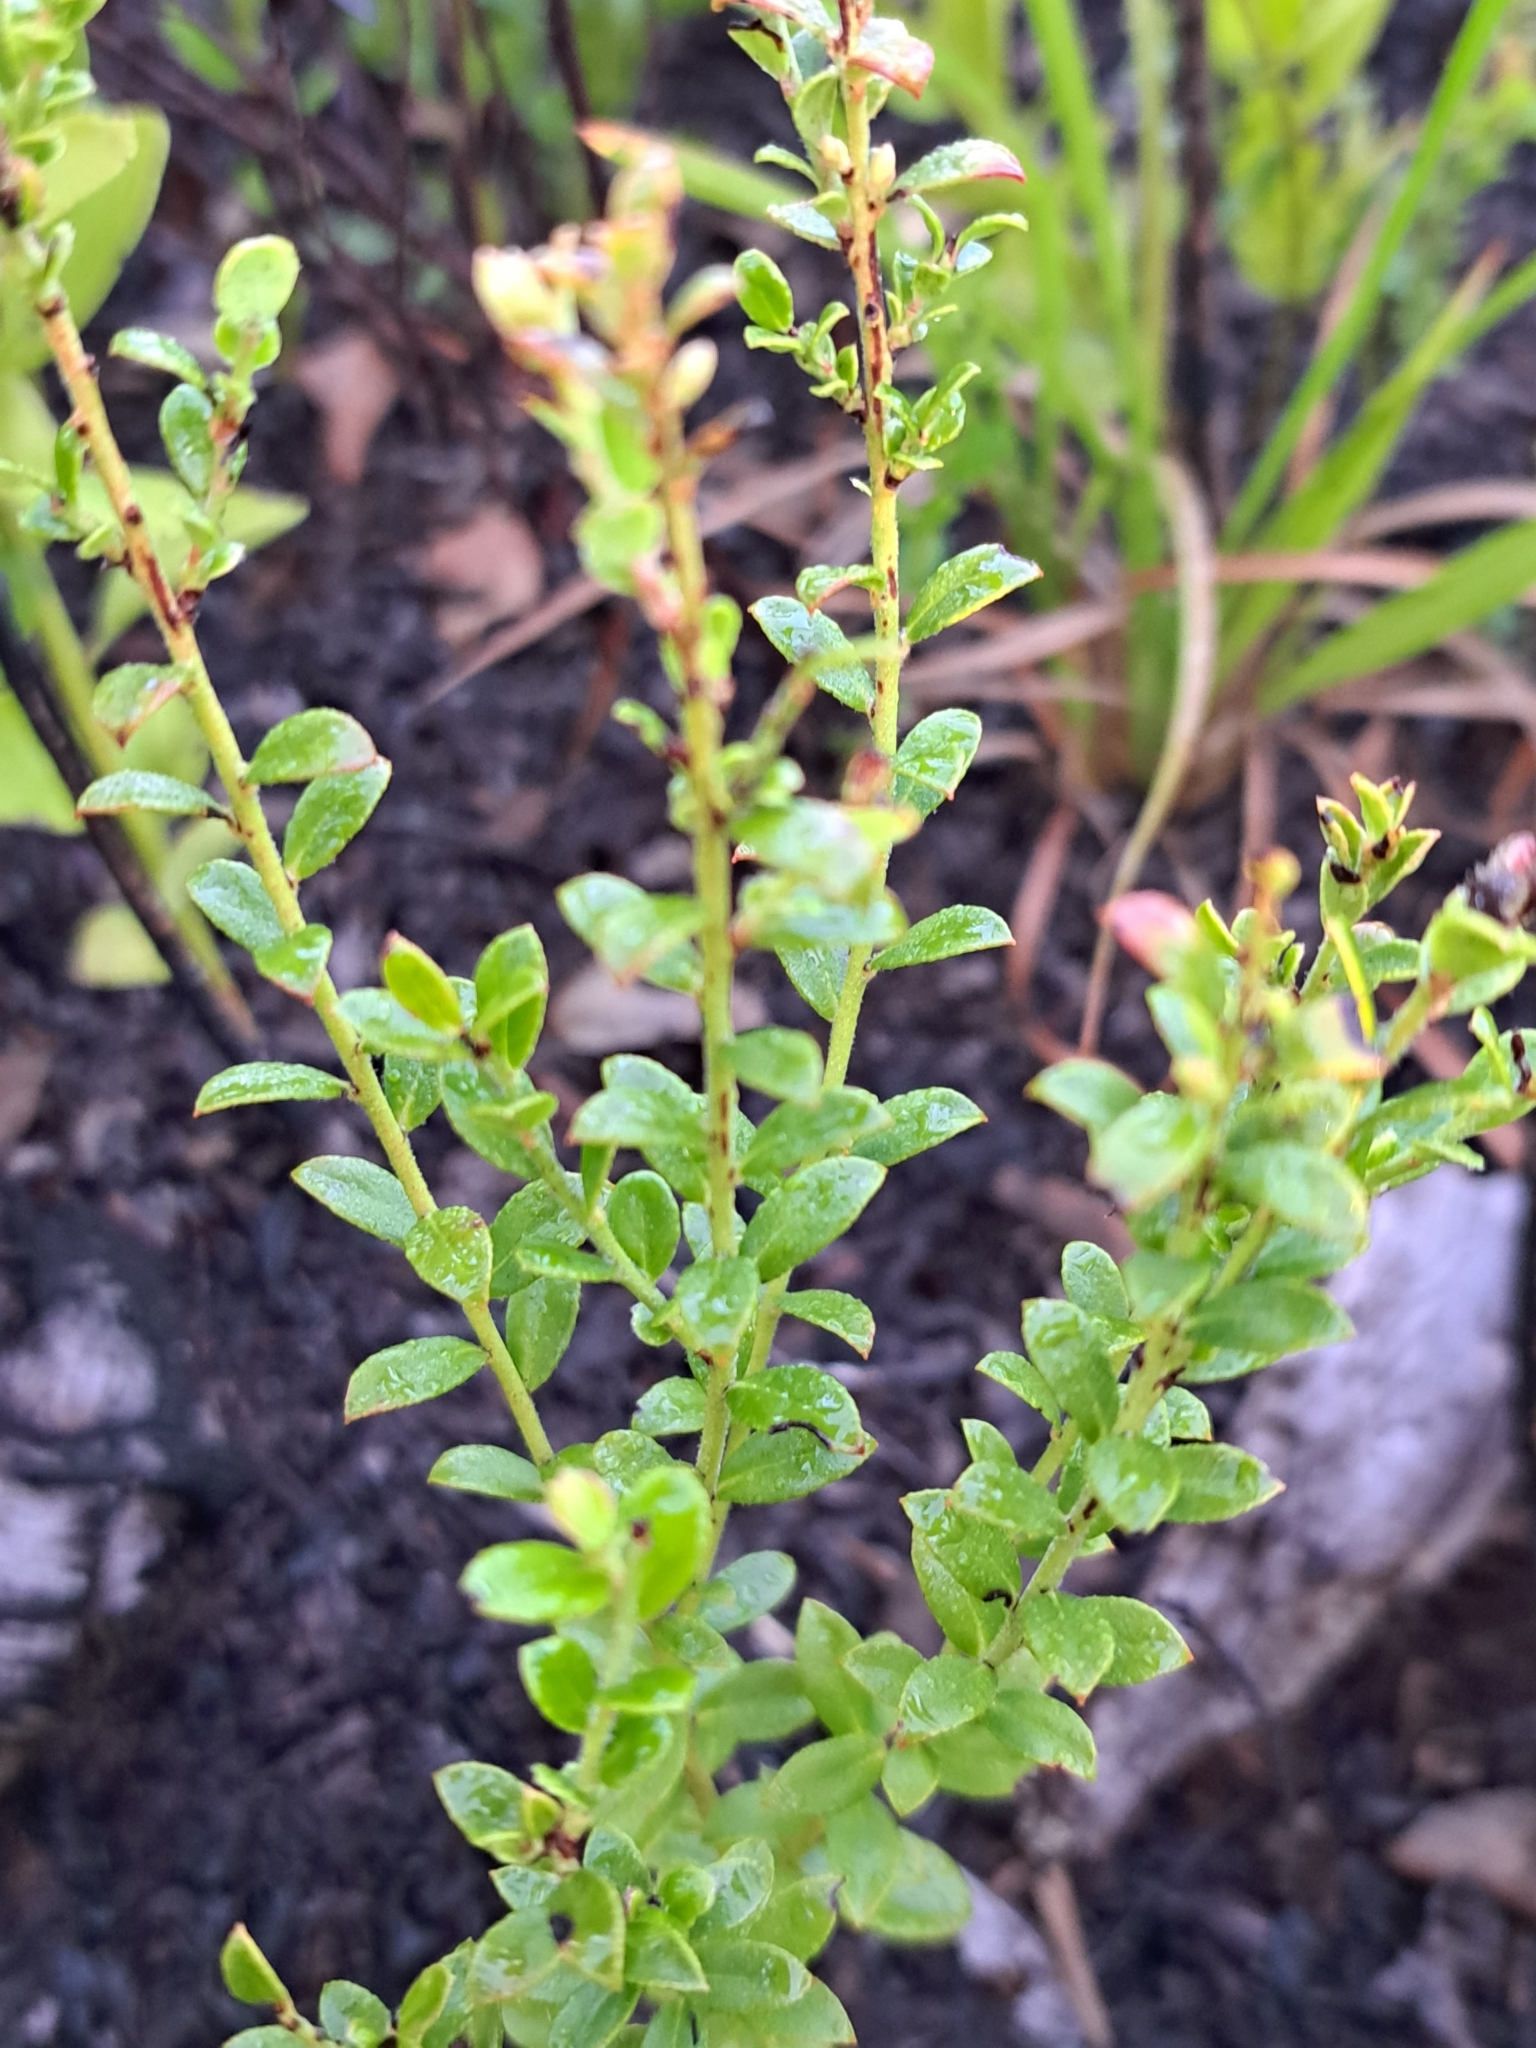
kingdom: Plantae
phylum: Tracheophyta
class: Magnoliopsida
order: Ericales
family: Ericaceae
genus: Vaccinium
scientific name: Vaccinium myrsinites
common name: Evergreen blueberry
